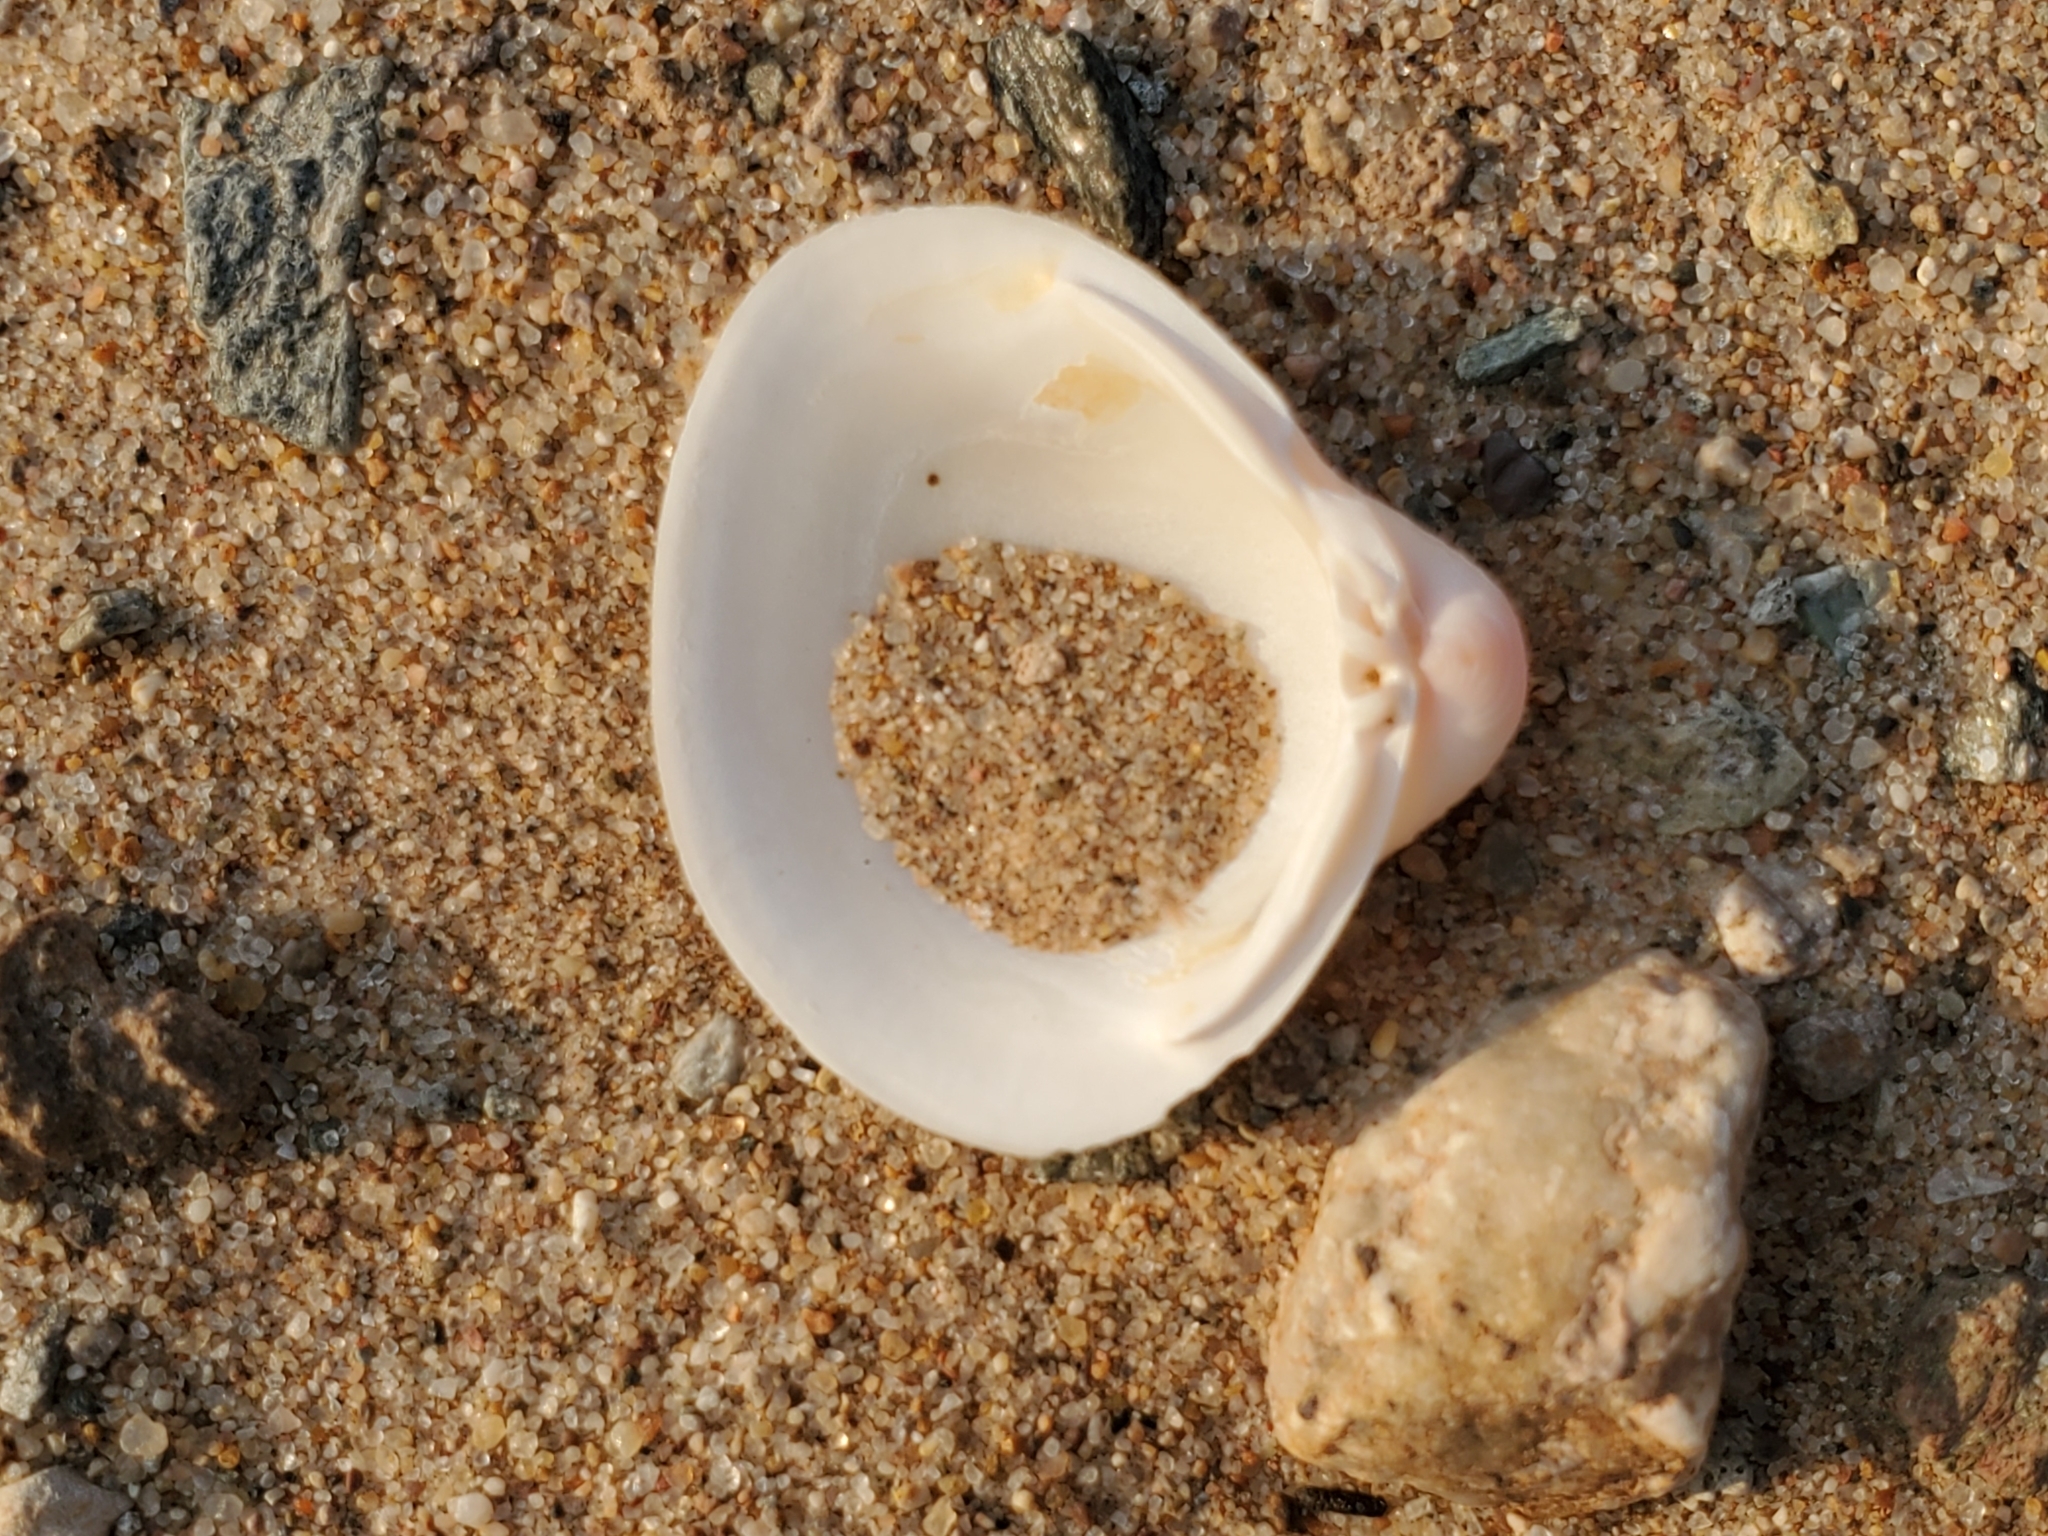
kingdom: Animalia
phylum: Mollusca
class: Bivalvia
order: Venerida
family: Cyrenidae
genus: Corbicula
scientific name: Corbicula fluminea
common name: Asian clam
